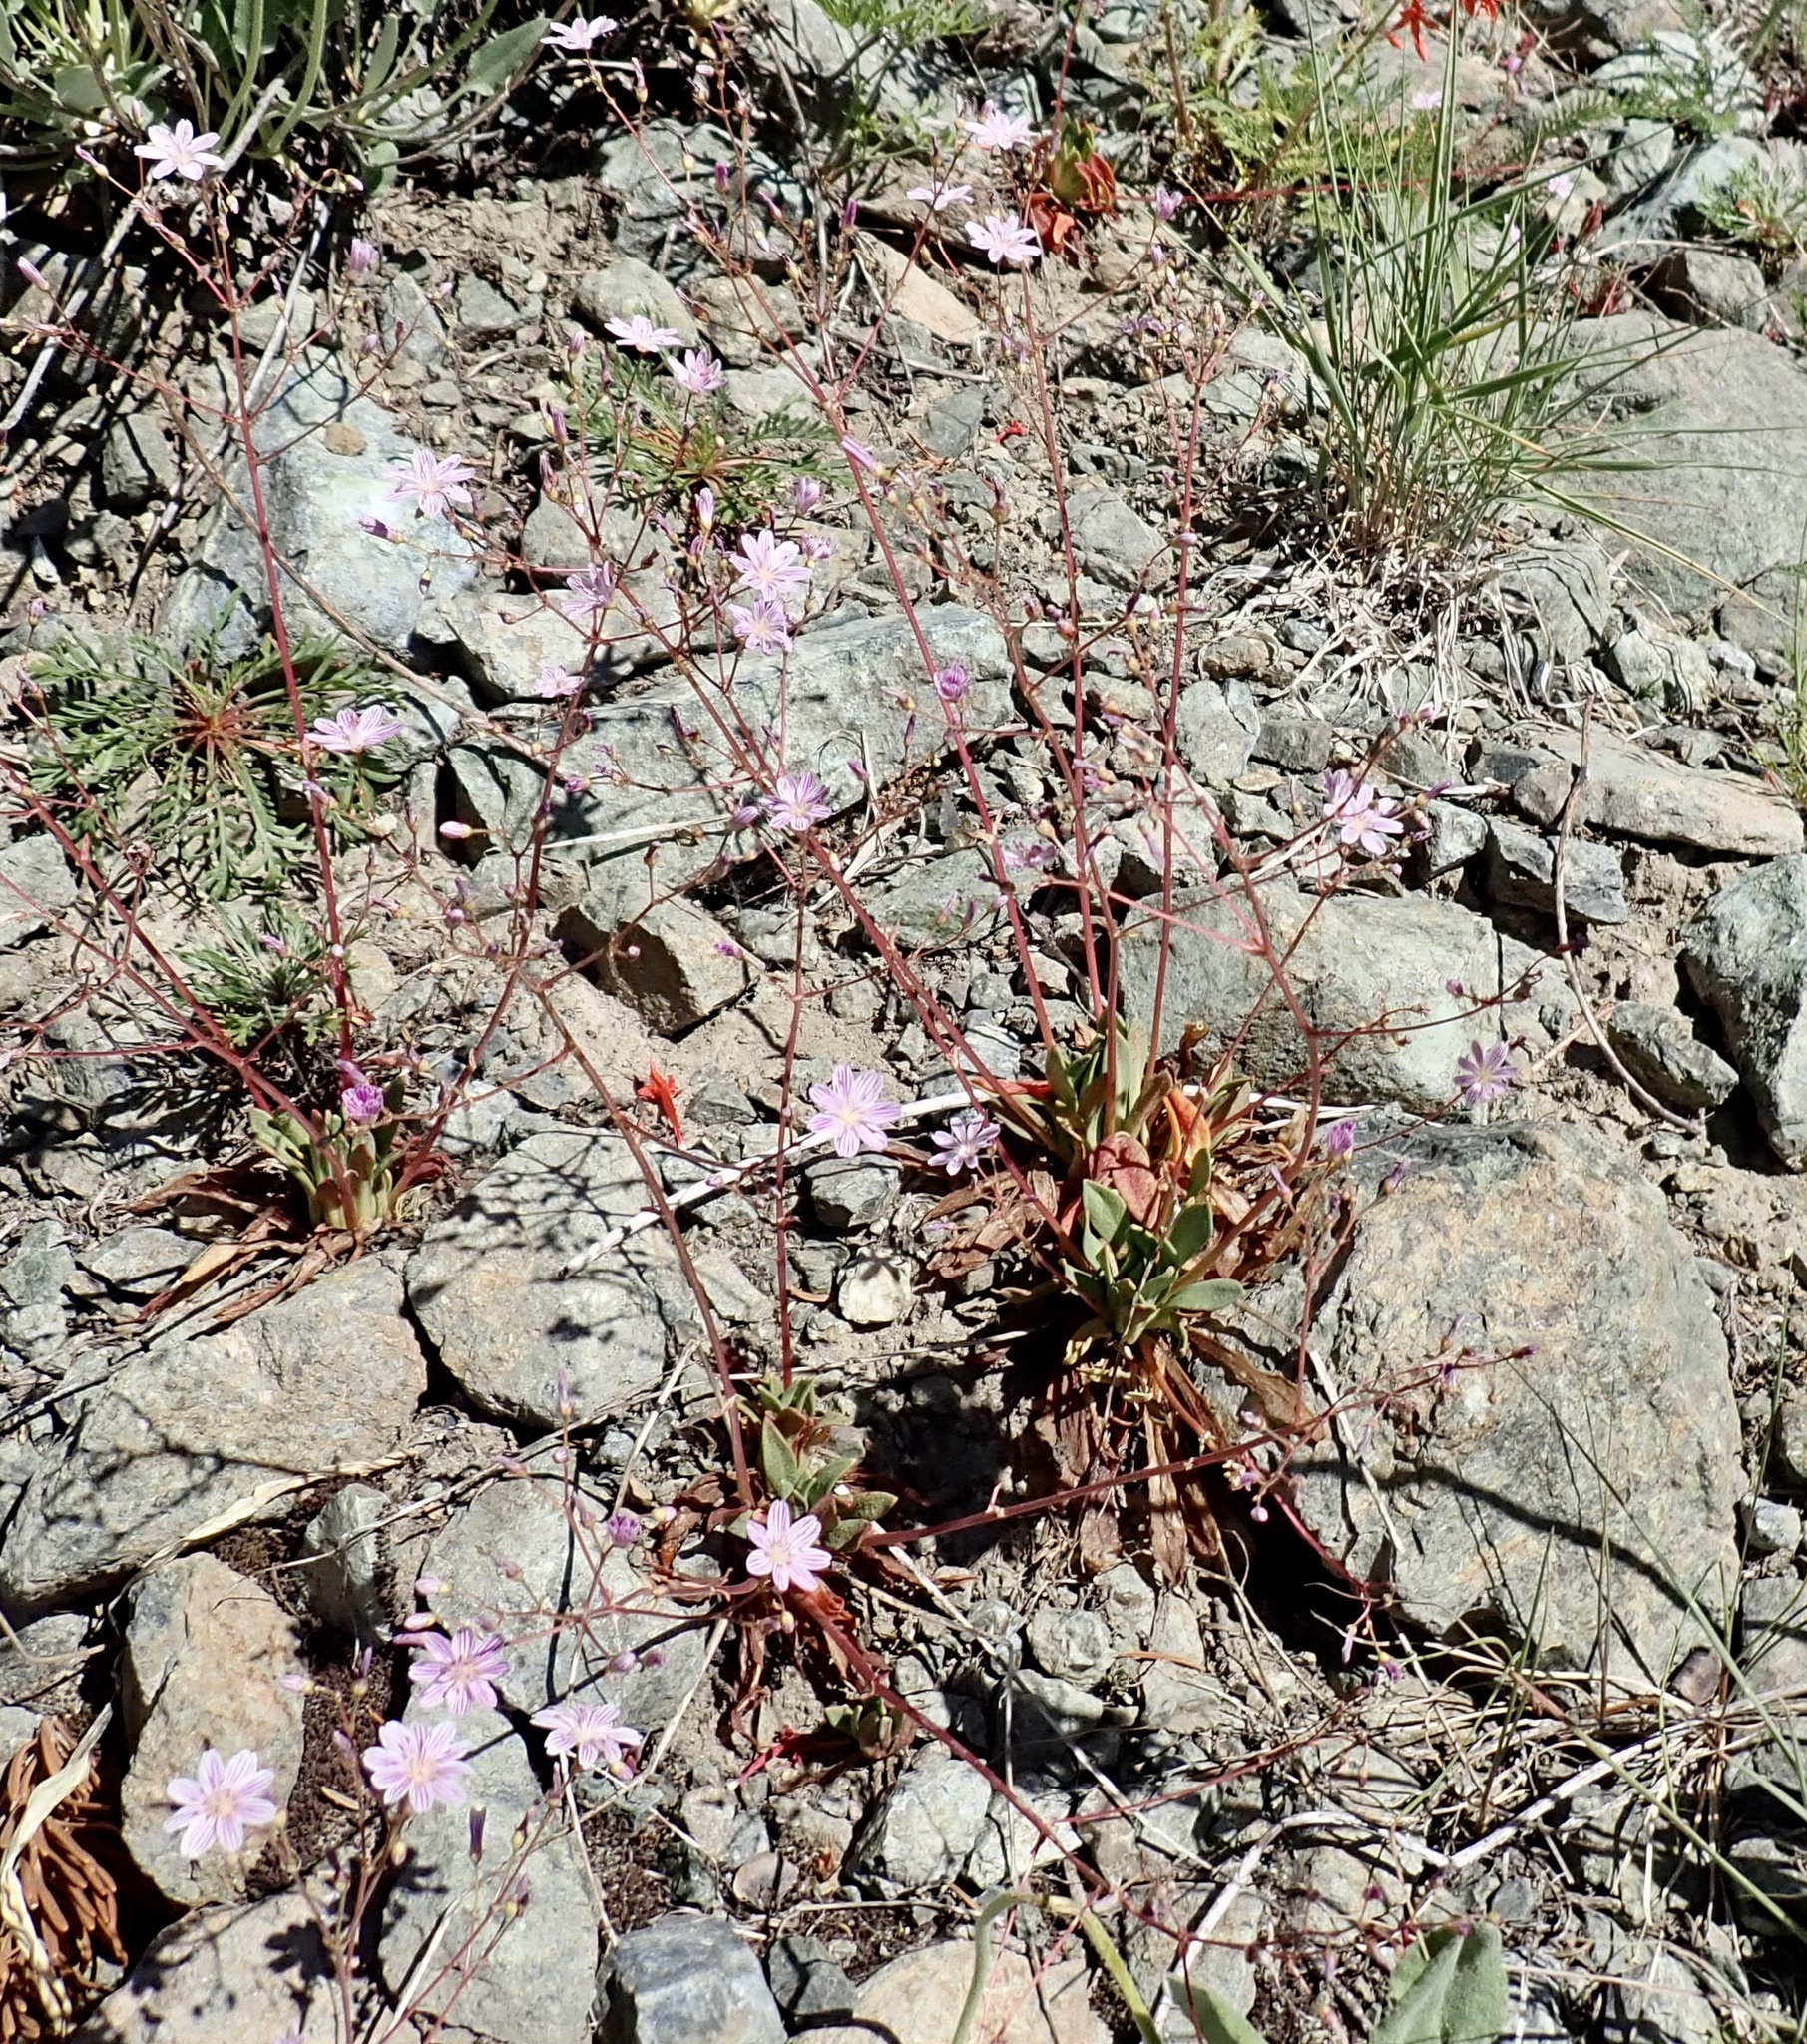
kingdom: Plantae
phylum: Tracheophyta
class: Magnoliopsida
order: Caryophyllales
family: Montiaceae
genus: Lewisia
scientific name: Lewisia columbiana
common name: Columbia lewisia
